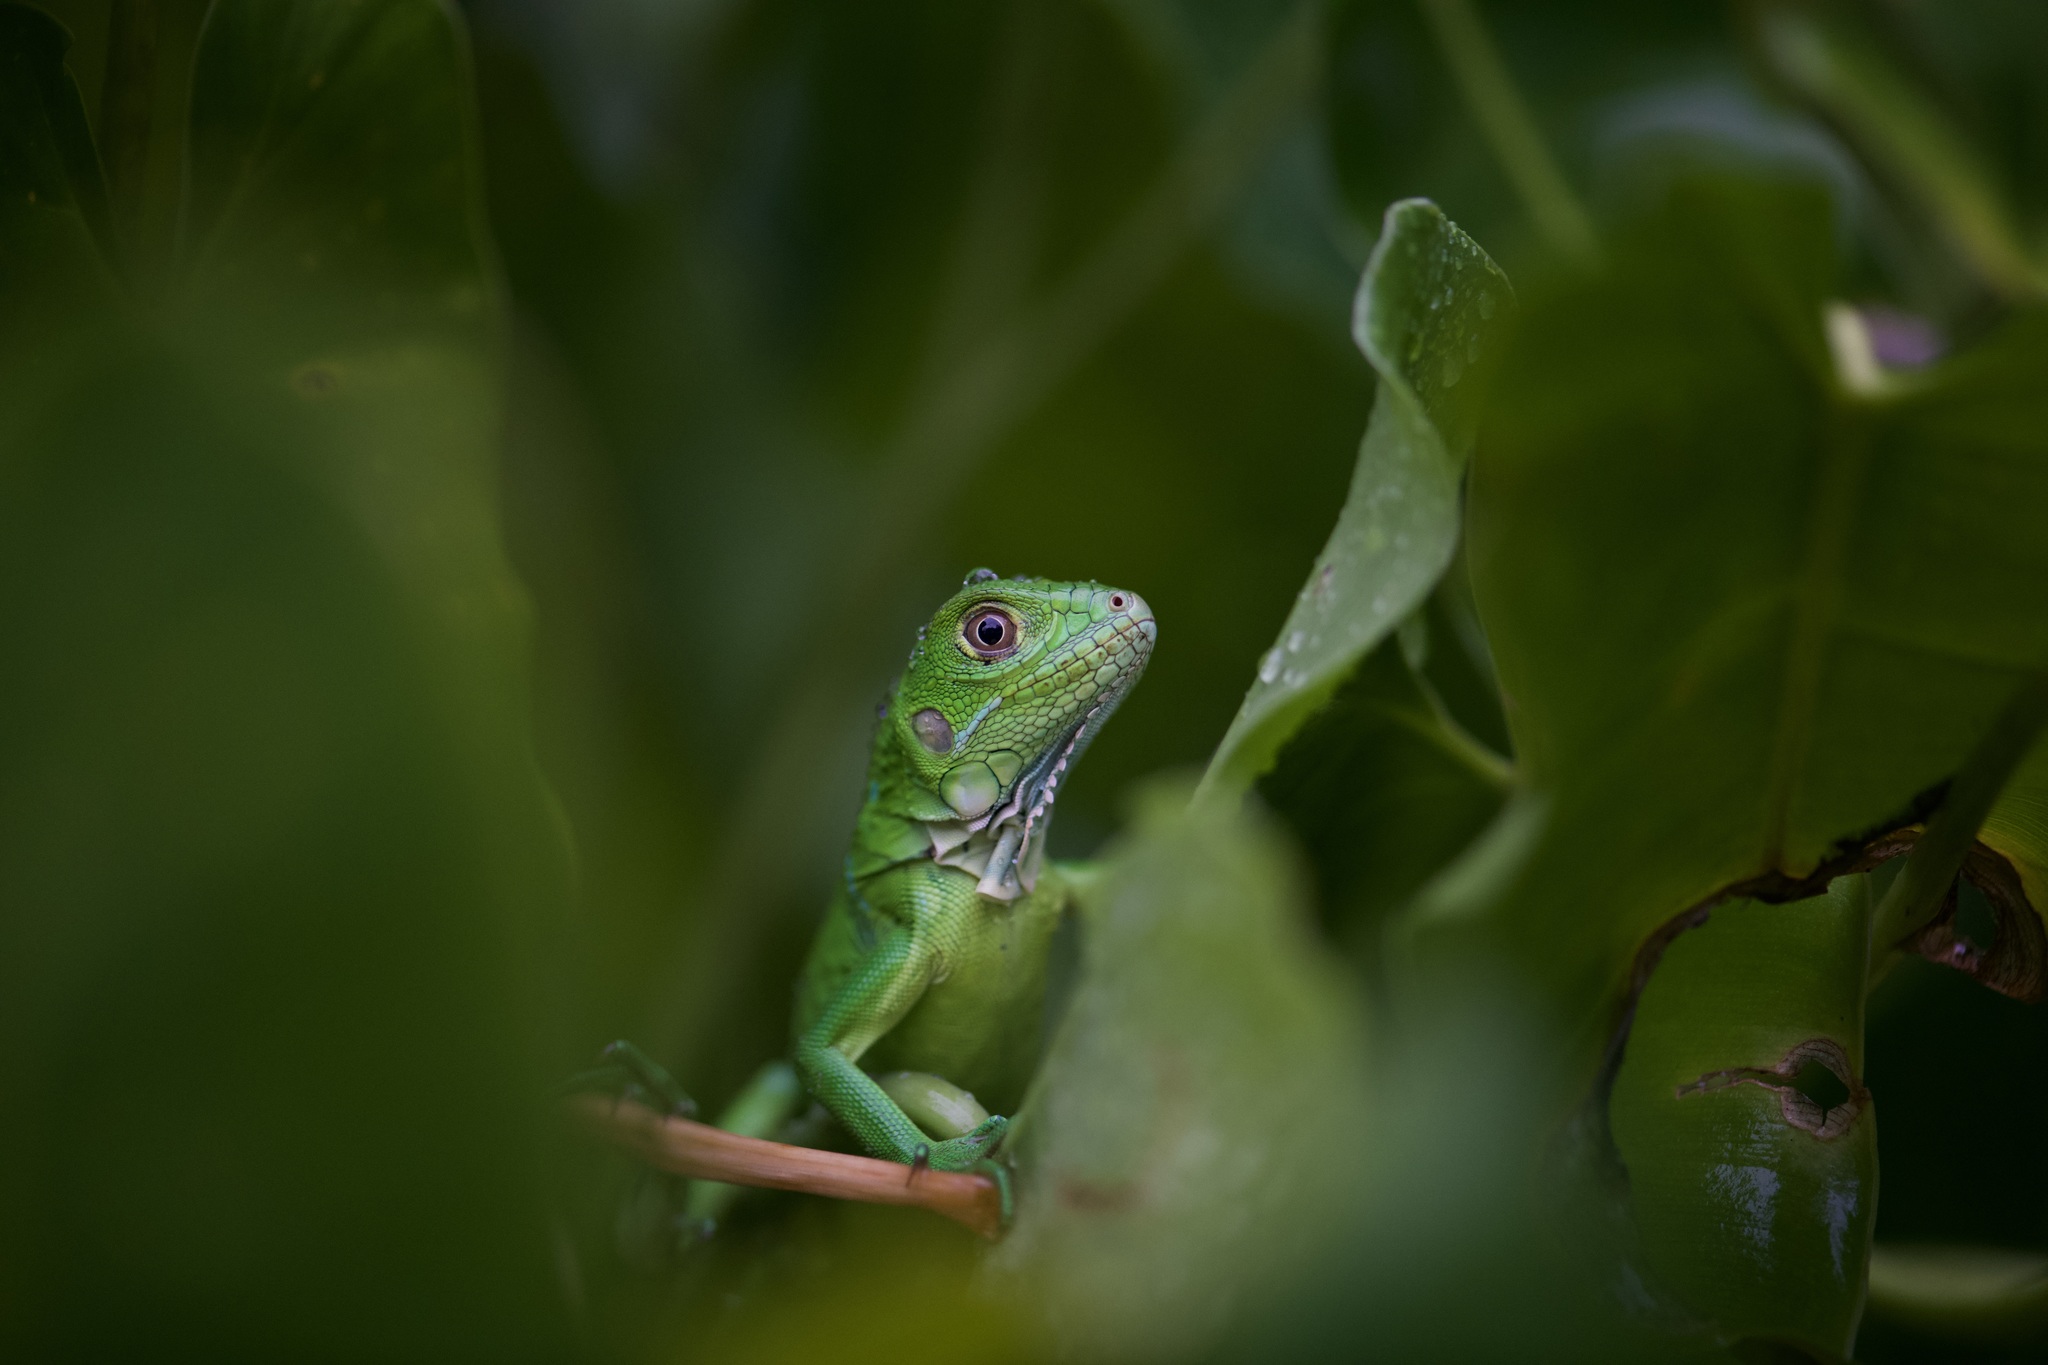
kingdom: Animalia
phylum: Chordata
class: Squamata
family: Iguanidae
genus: Iguana
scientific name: Iguana iguana
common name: Green iguana
